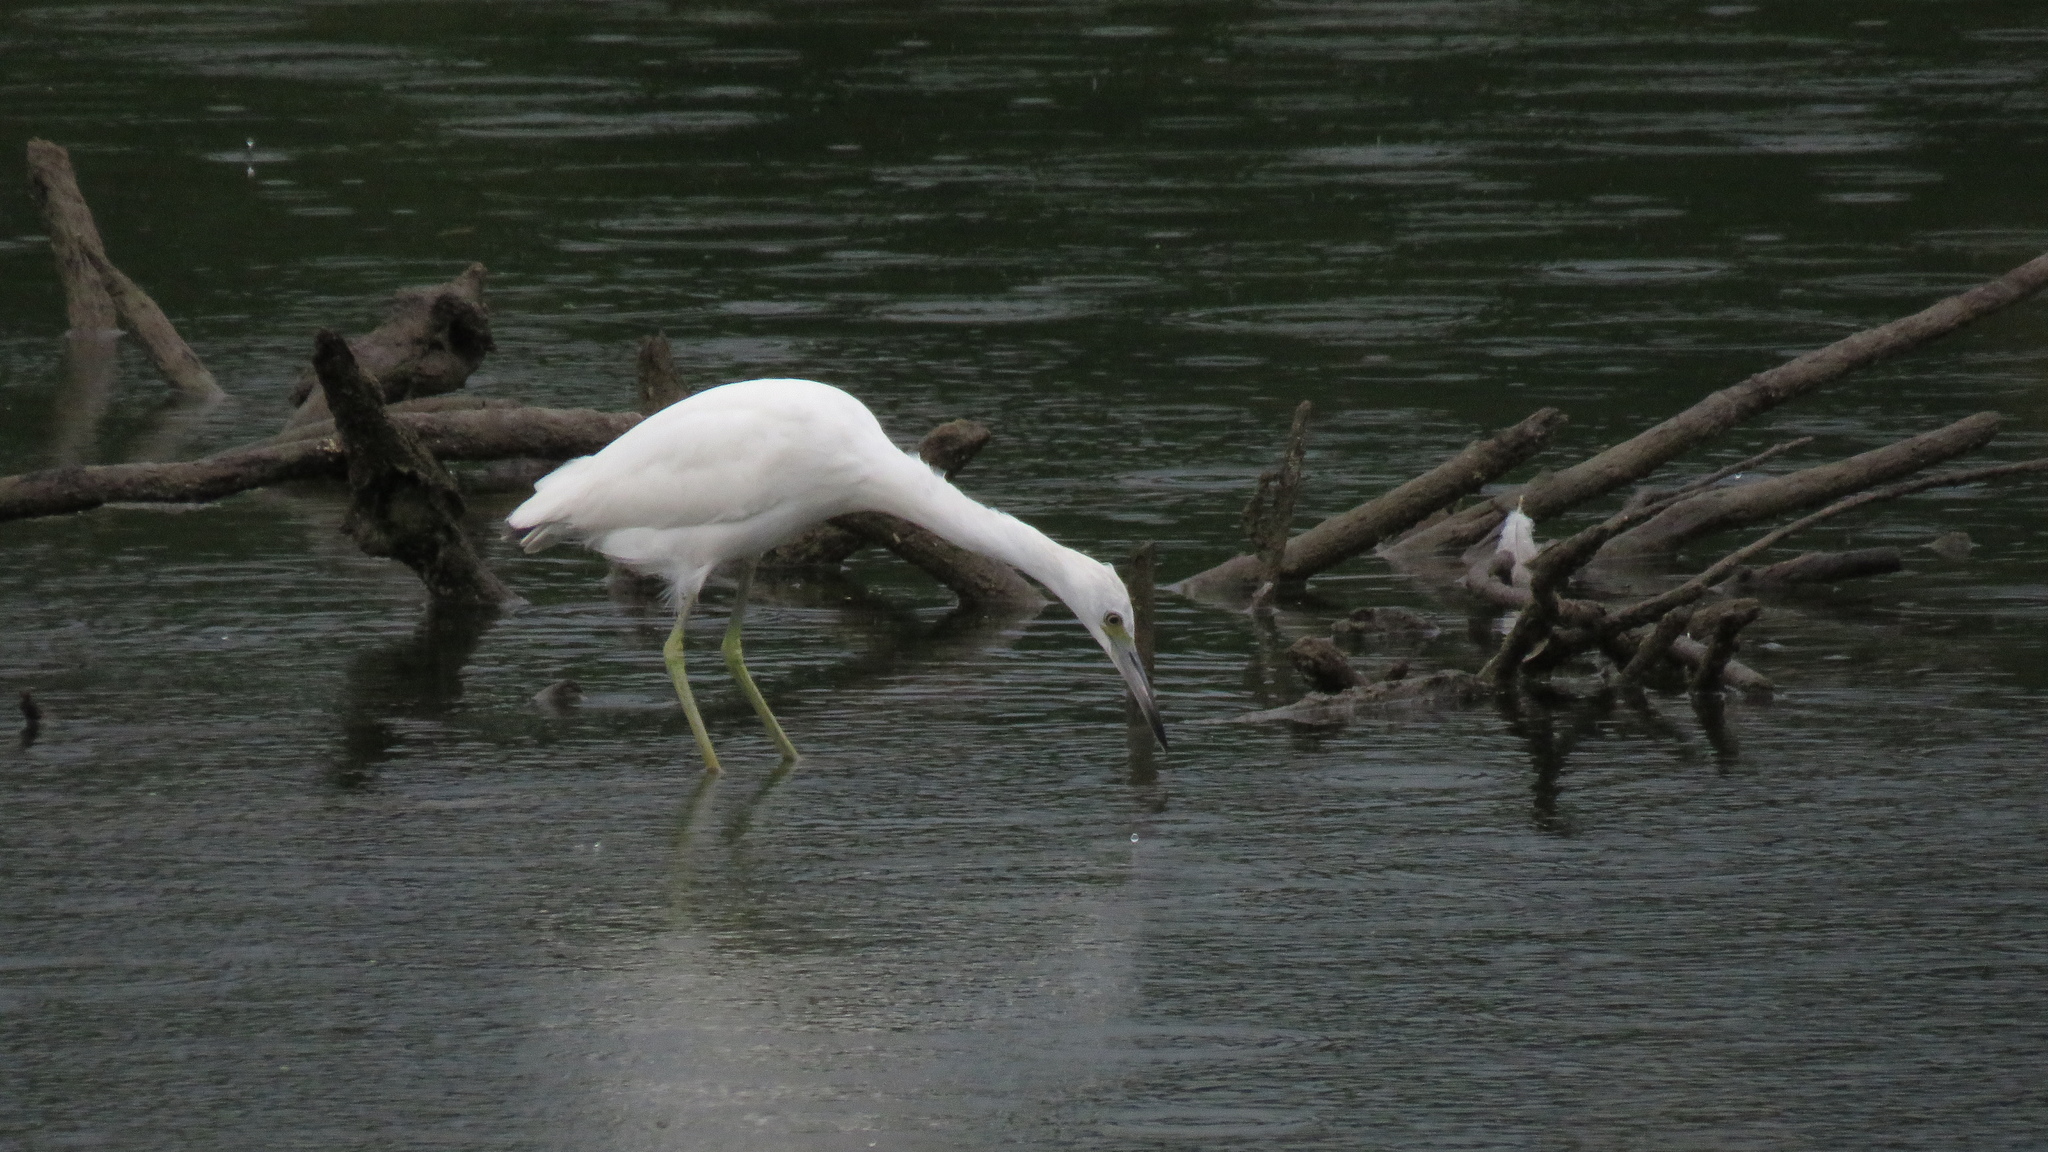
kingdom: Animalia
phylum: Chordata
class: Aves
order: Pelecaniformes
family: Ardeidae
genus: Egretta
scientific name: Egretta caerulea
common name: Little blue heron
